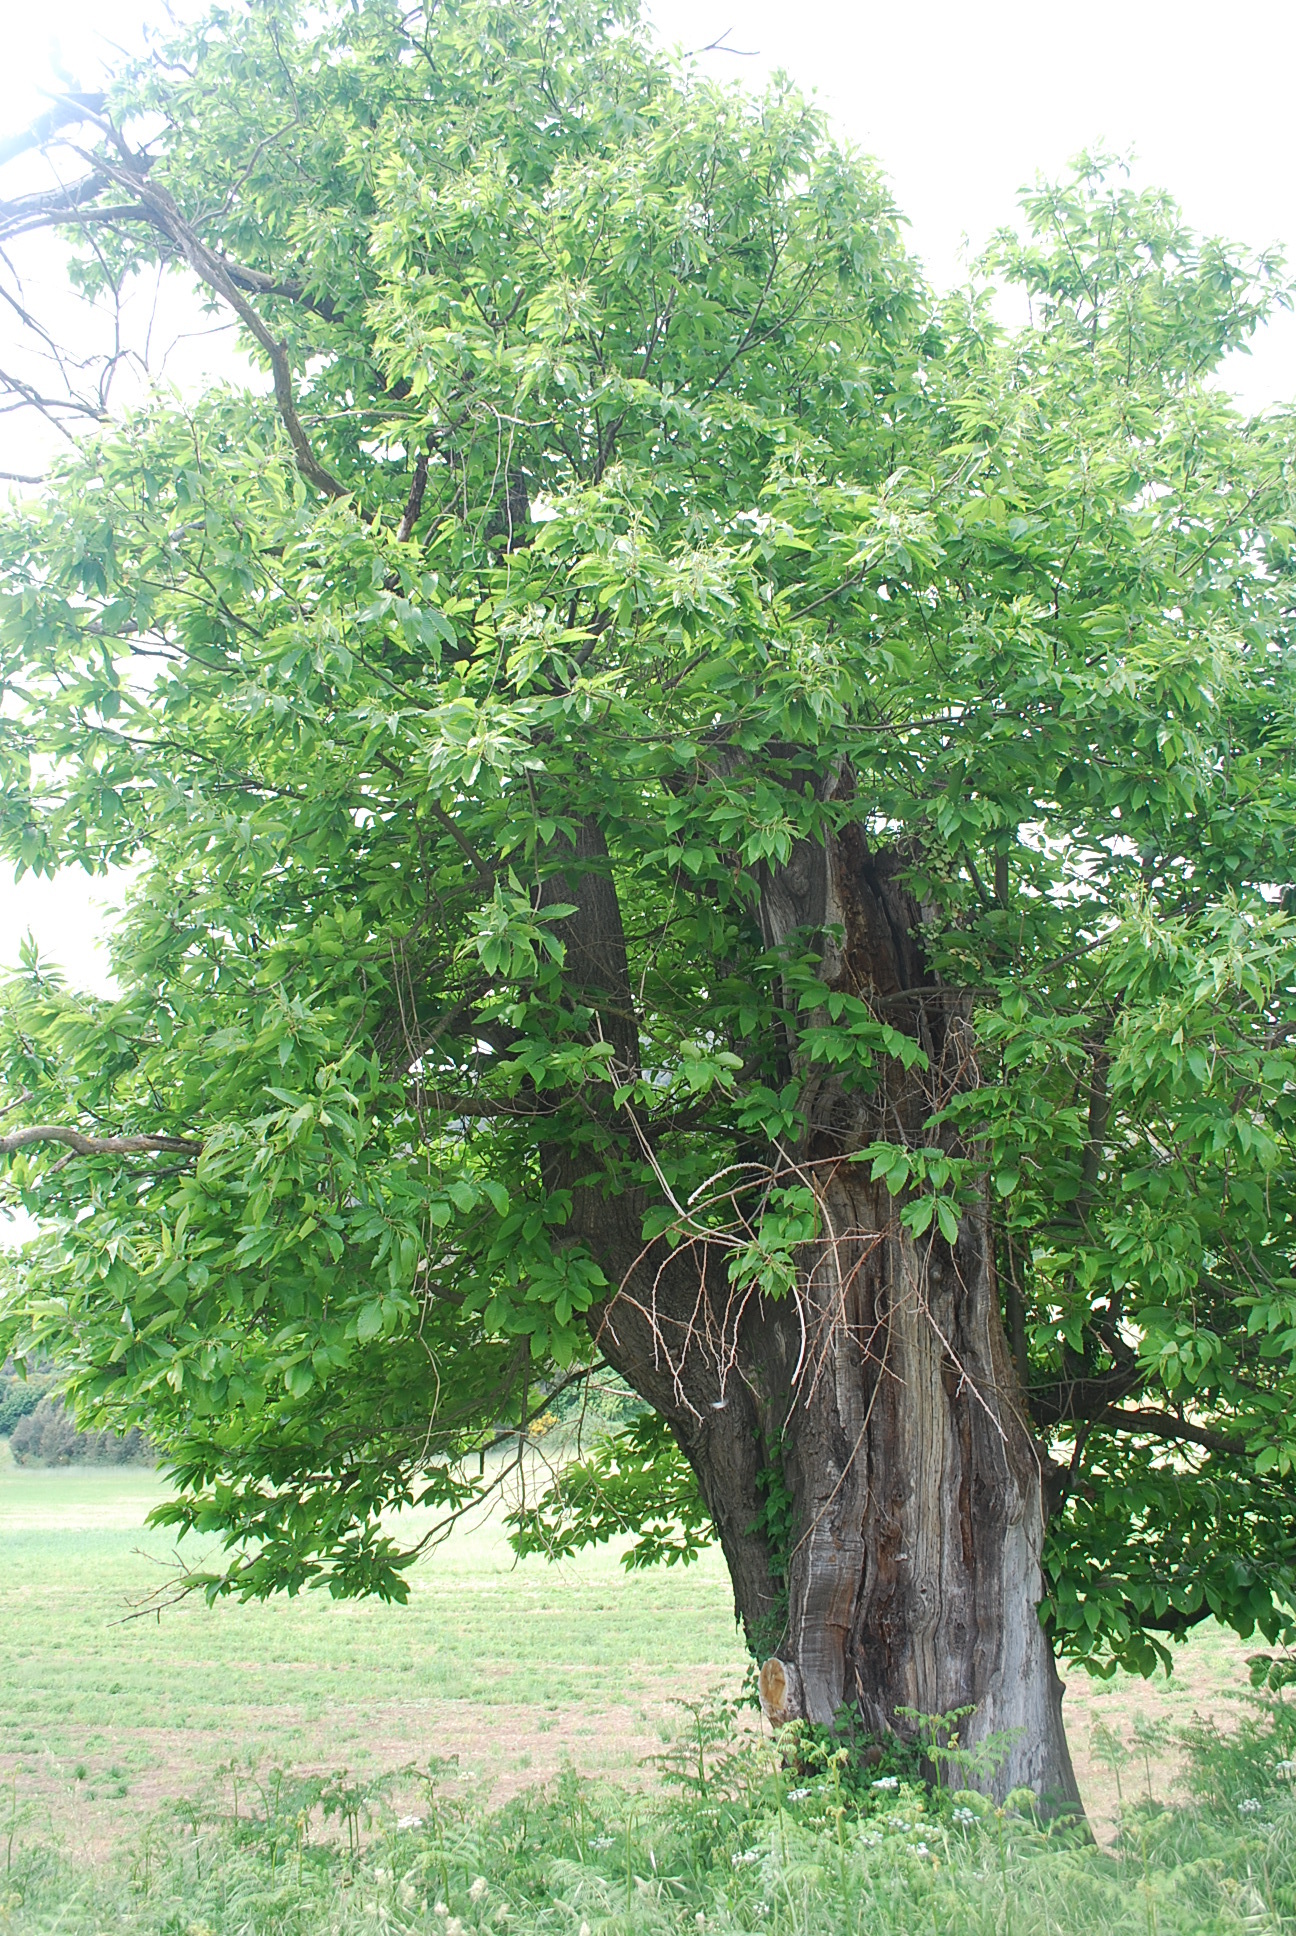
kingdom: Plantae
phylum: Tracheophyta
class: Magnoliopsida
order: Fagales
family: Fagaceae
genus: Castanea
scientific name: Castanea sativa
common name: Sweet chestnut
